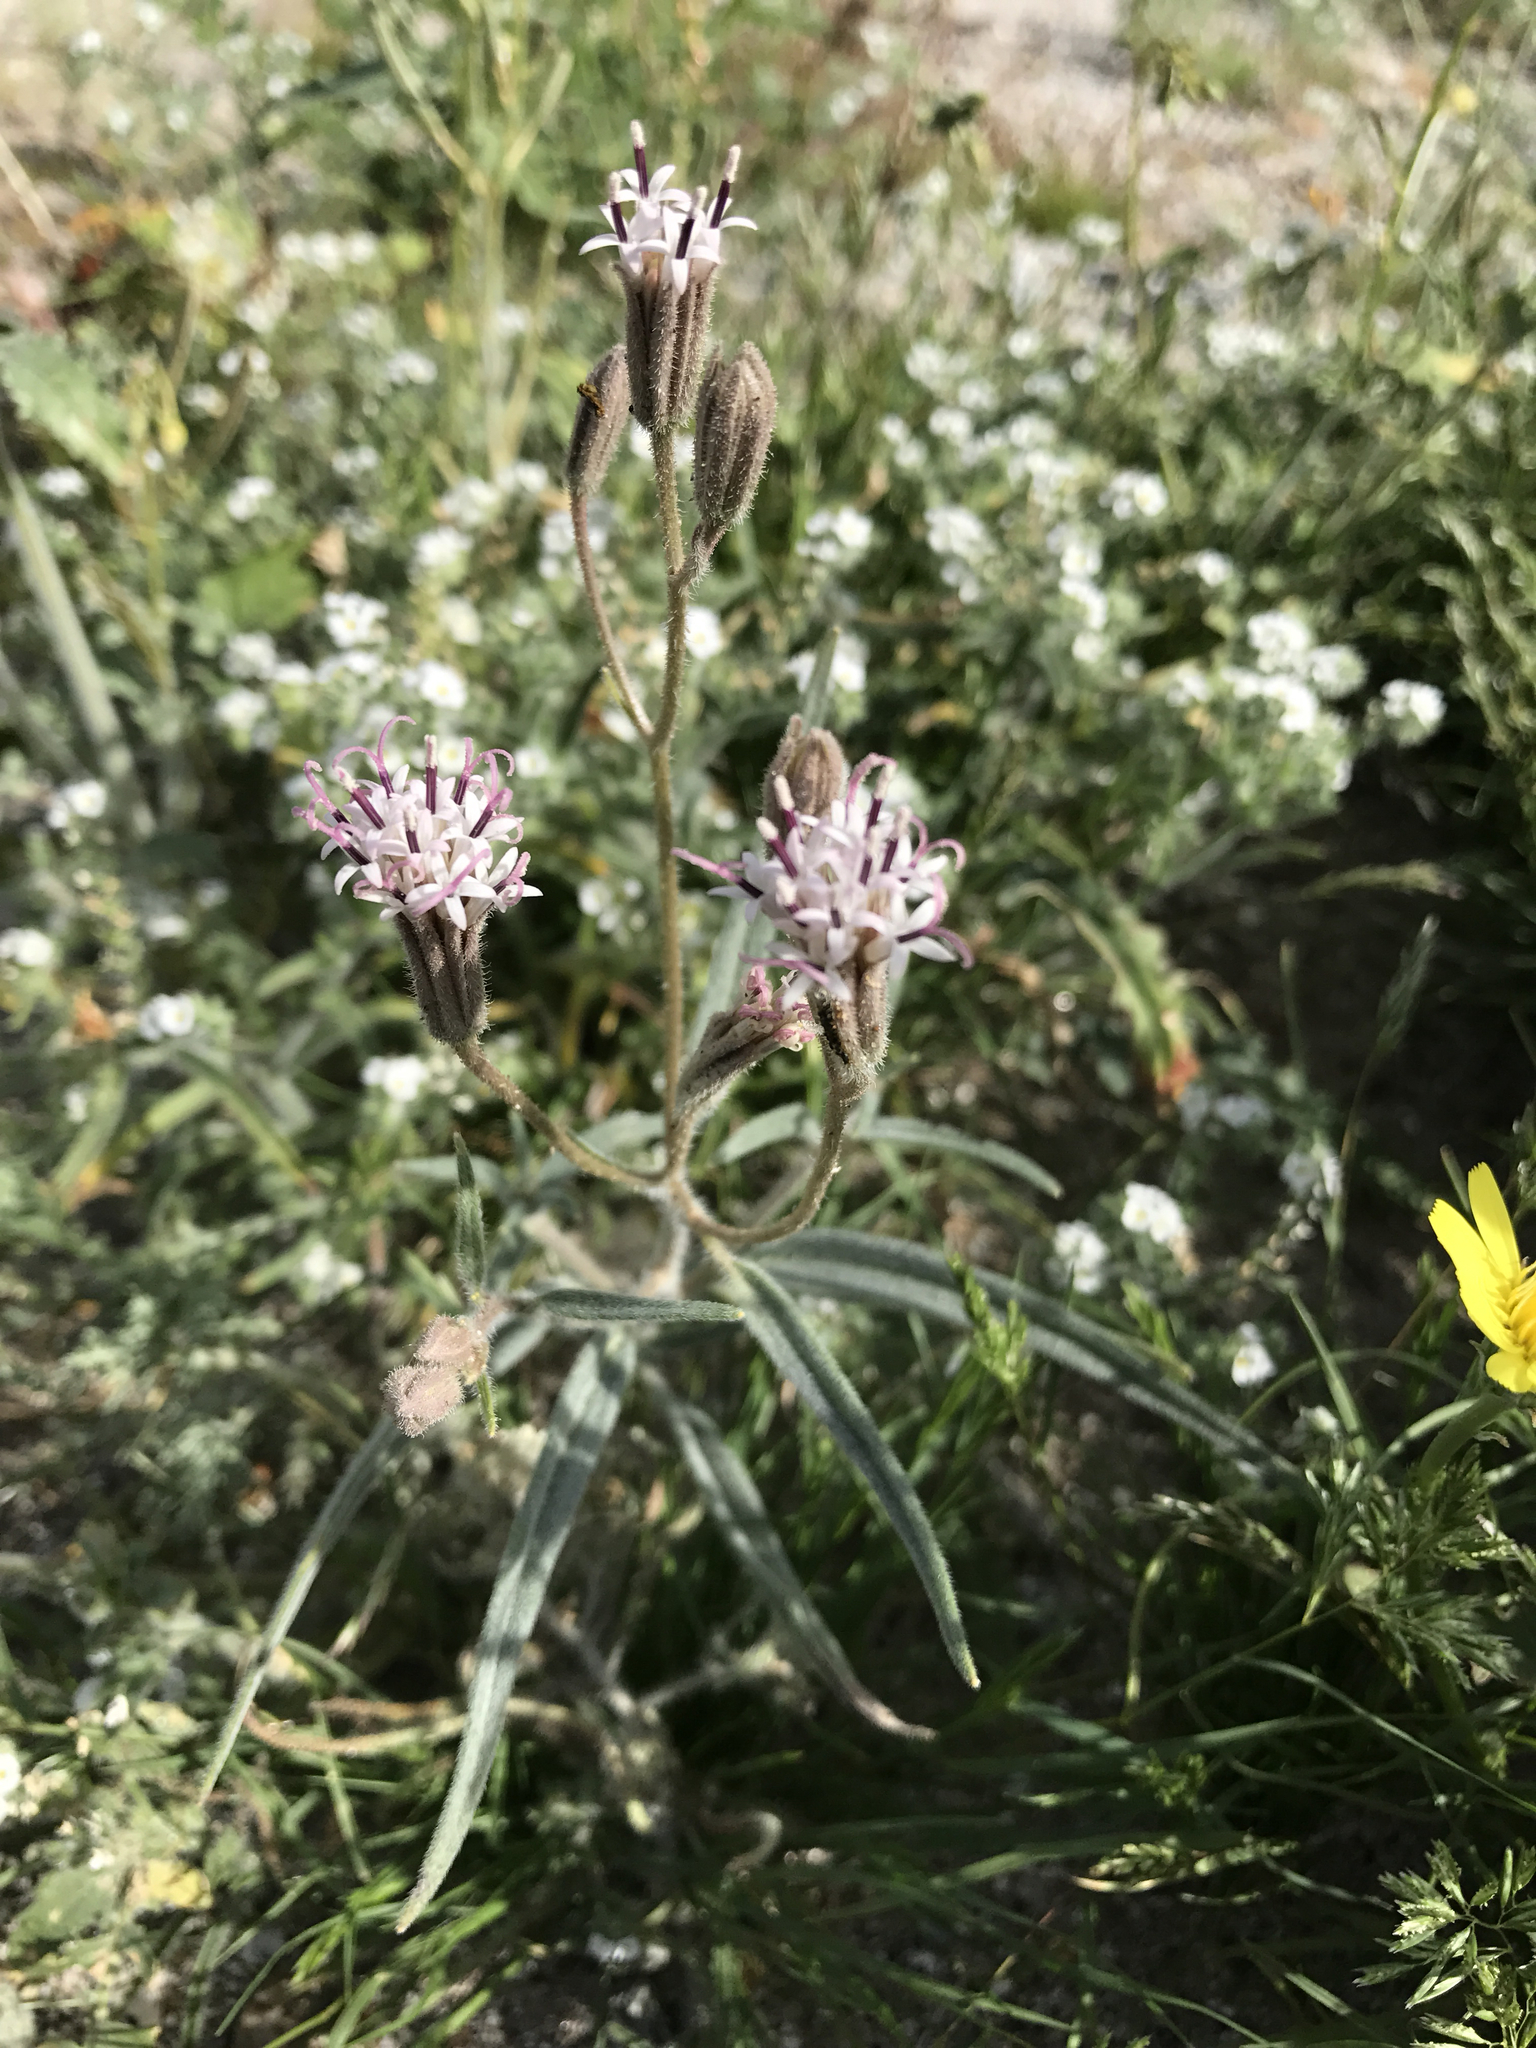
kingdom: Plantae
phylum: Tracheophyta
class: Magnoliopsida
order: Asterales
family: Asteraceae
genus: Palafoxia
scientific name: Palafoxia arida
